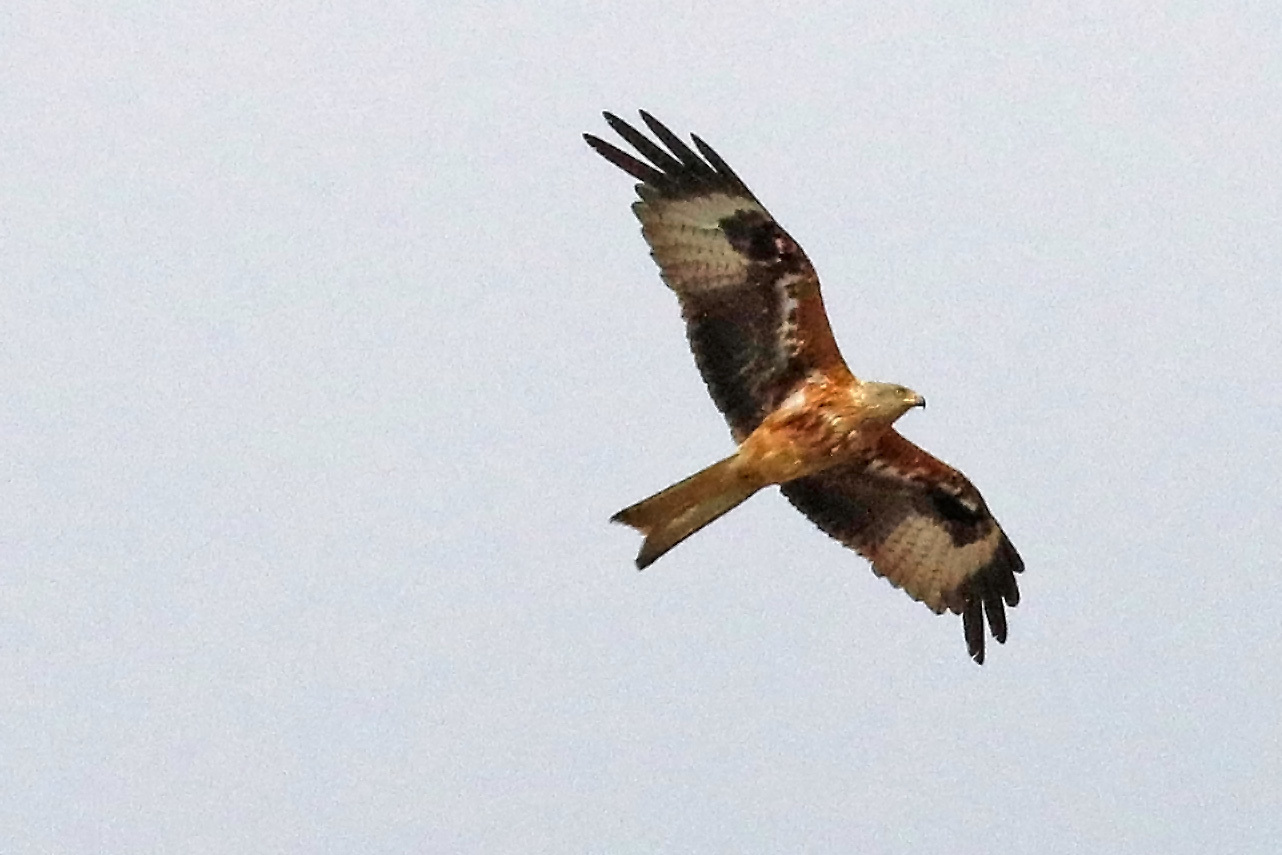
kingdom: Animalia
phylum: Chordata
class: Aves
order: Accipitriformes
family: Accipitridae
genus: Milvus
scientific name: Milvus milvus
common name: Red kite
